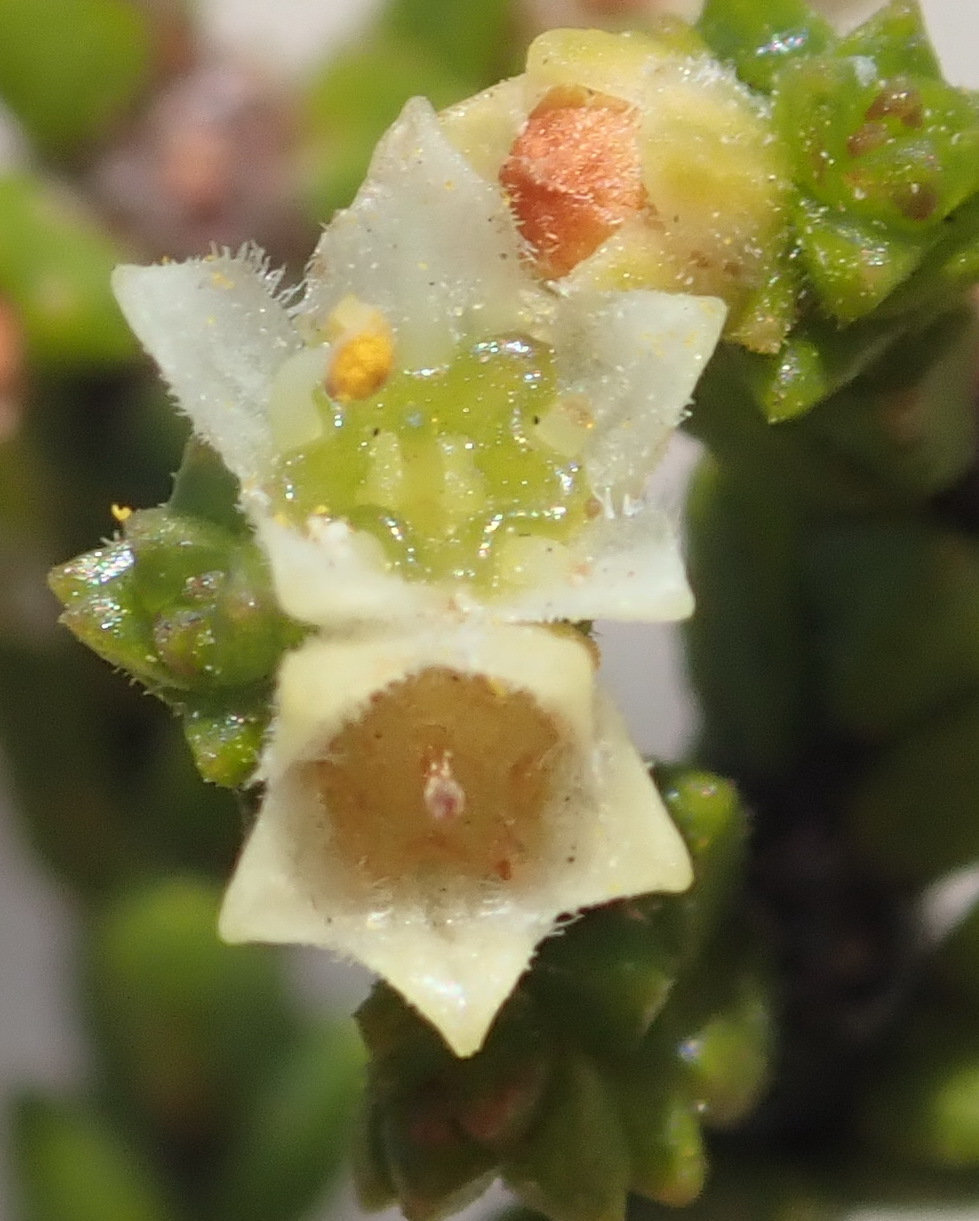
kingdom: Plantae
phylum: Tracheophyta
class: Magnoliopsida
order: Sapindales
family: Rutaceae
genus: Diosma
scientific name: Diosma apetala
